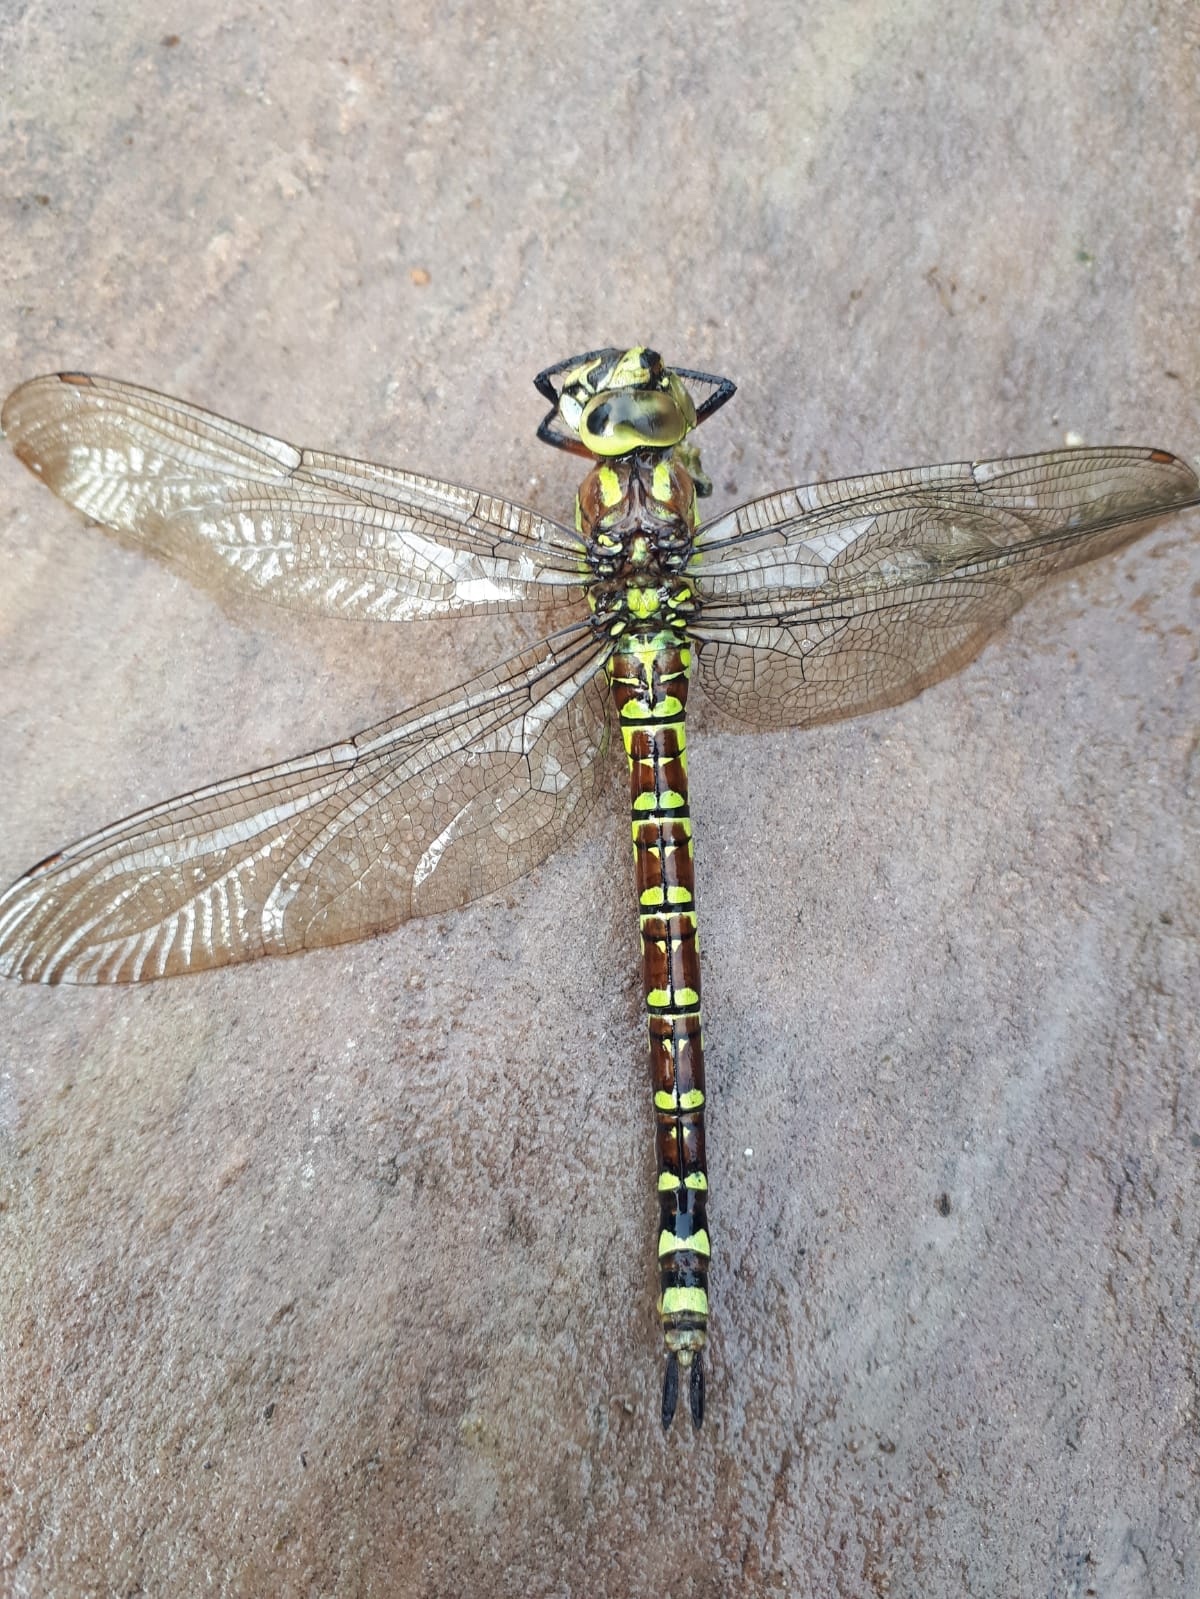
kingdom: Animalia
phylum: Arthropoda
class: Insecta
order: Odonata
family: Aeshnidae
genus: Aeshna
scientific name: Aeshna cyanea
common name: Southern hawker
